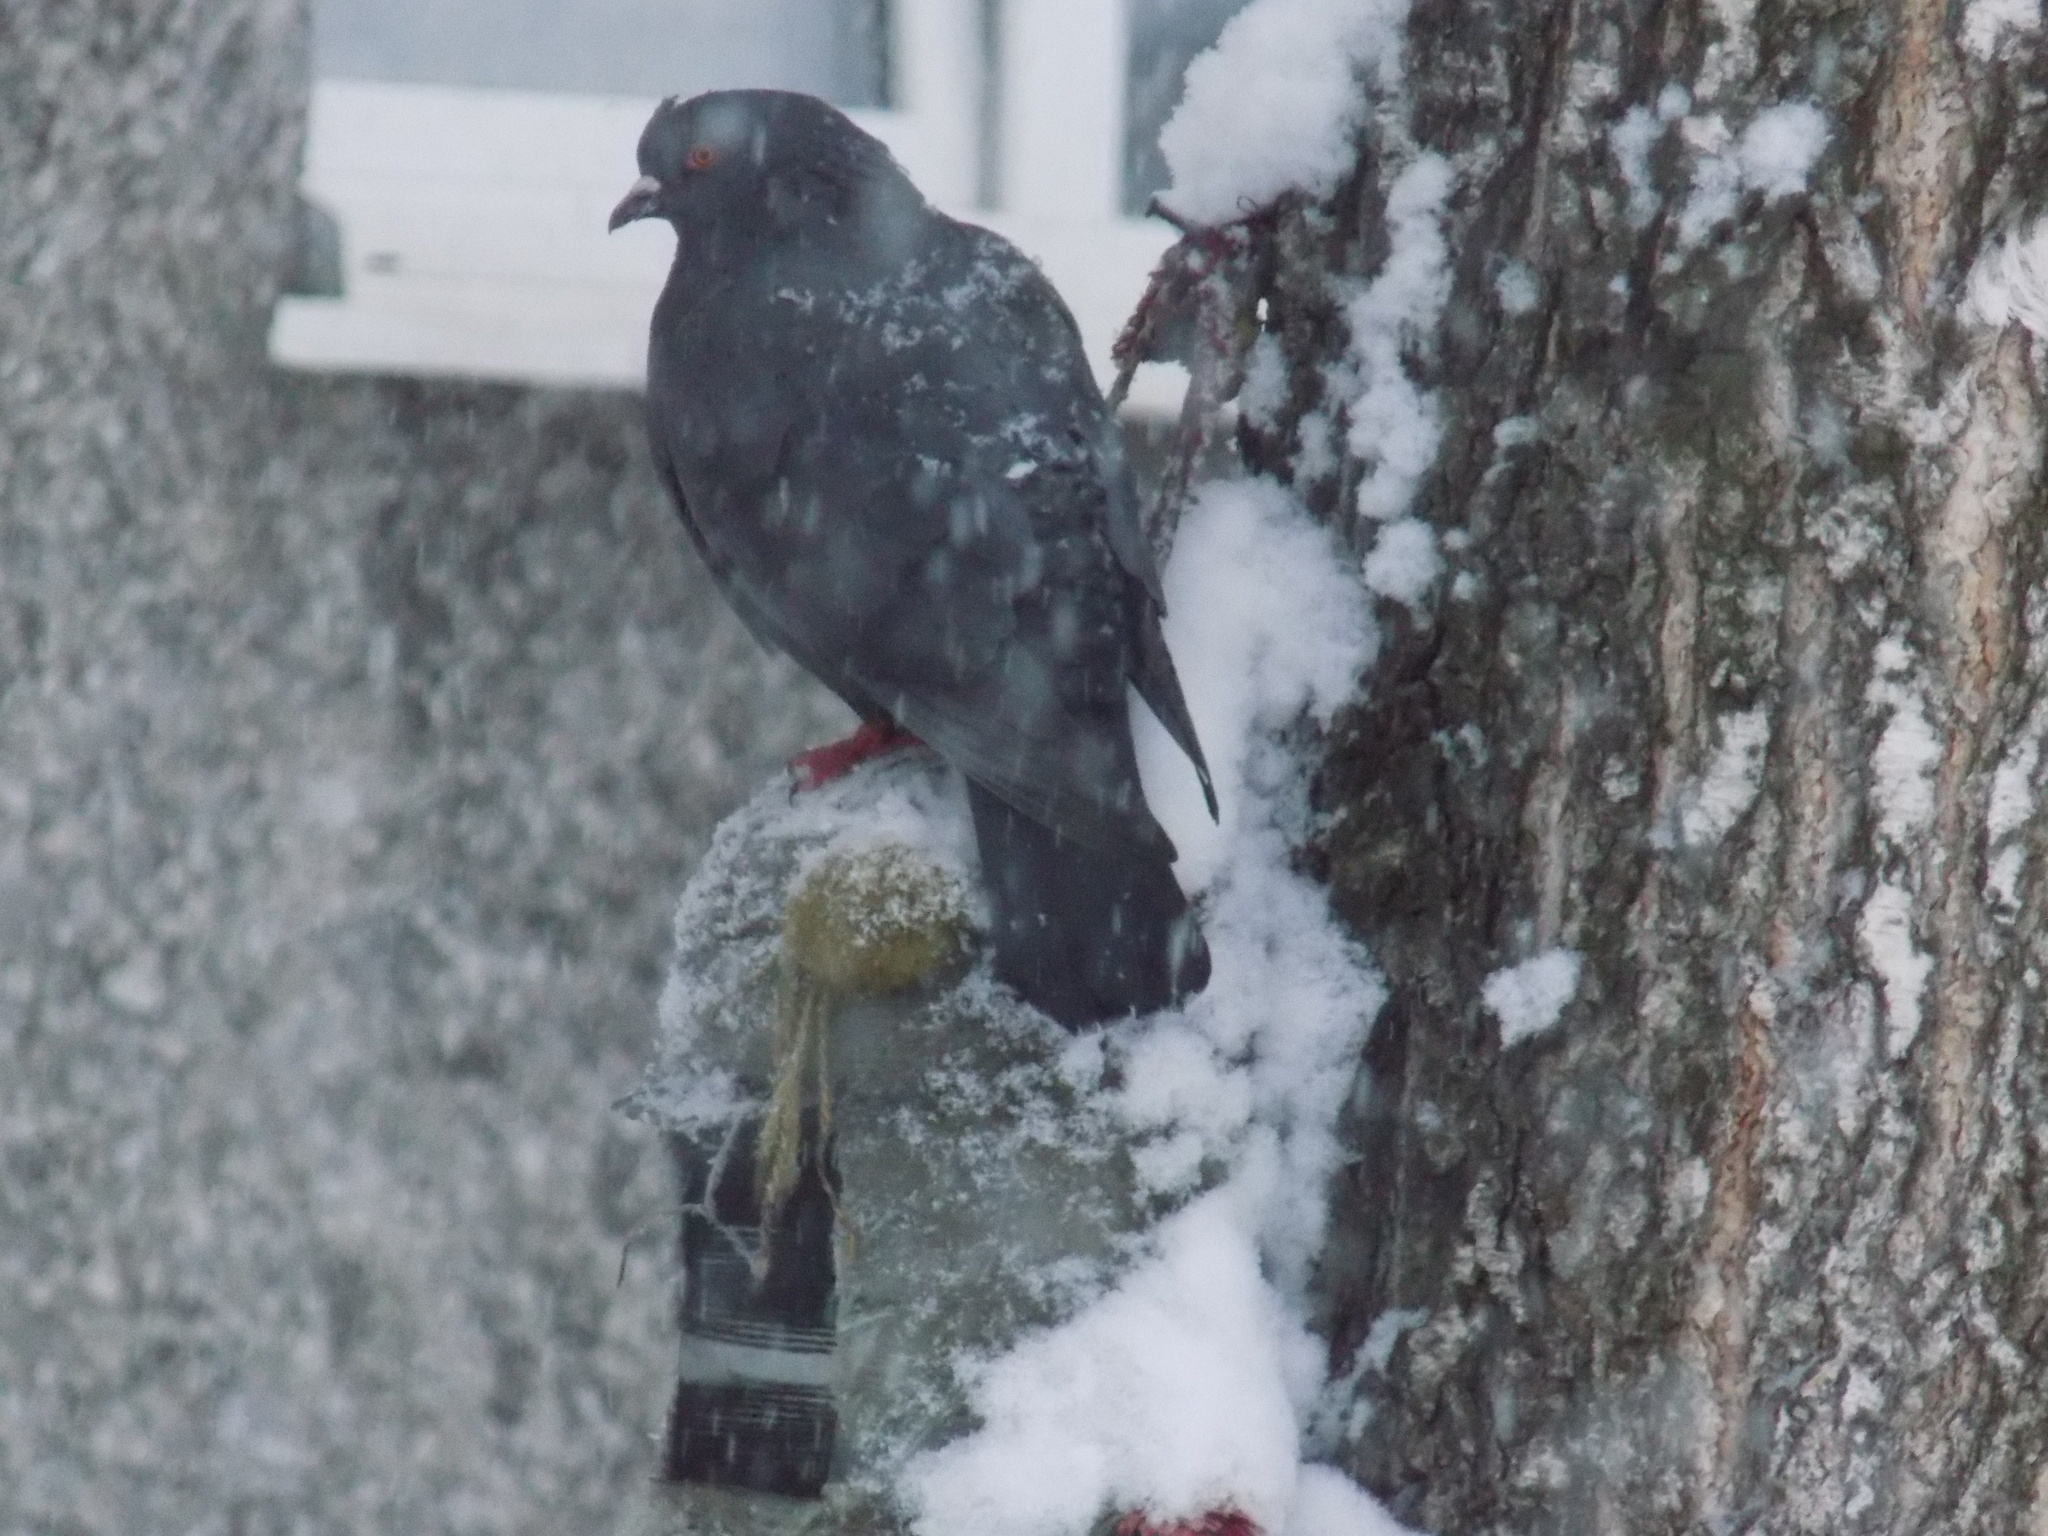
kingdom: Animalia
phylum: Chordata
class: Aves
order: Columbiformes
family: Columbidae
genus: Columba
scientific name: Columba livia
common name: Rock pigeon
